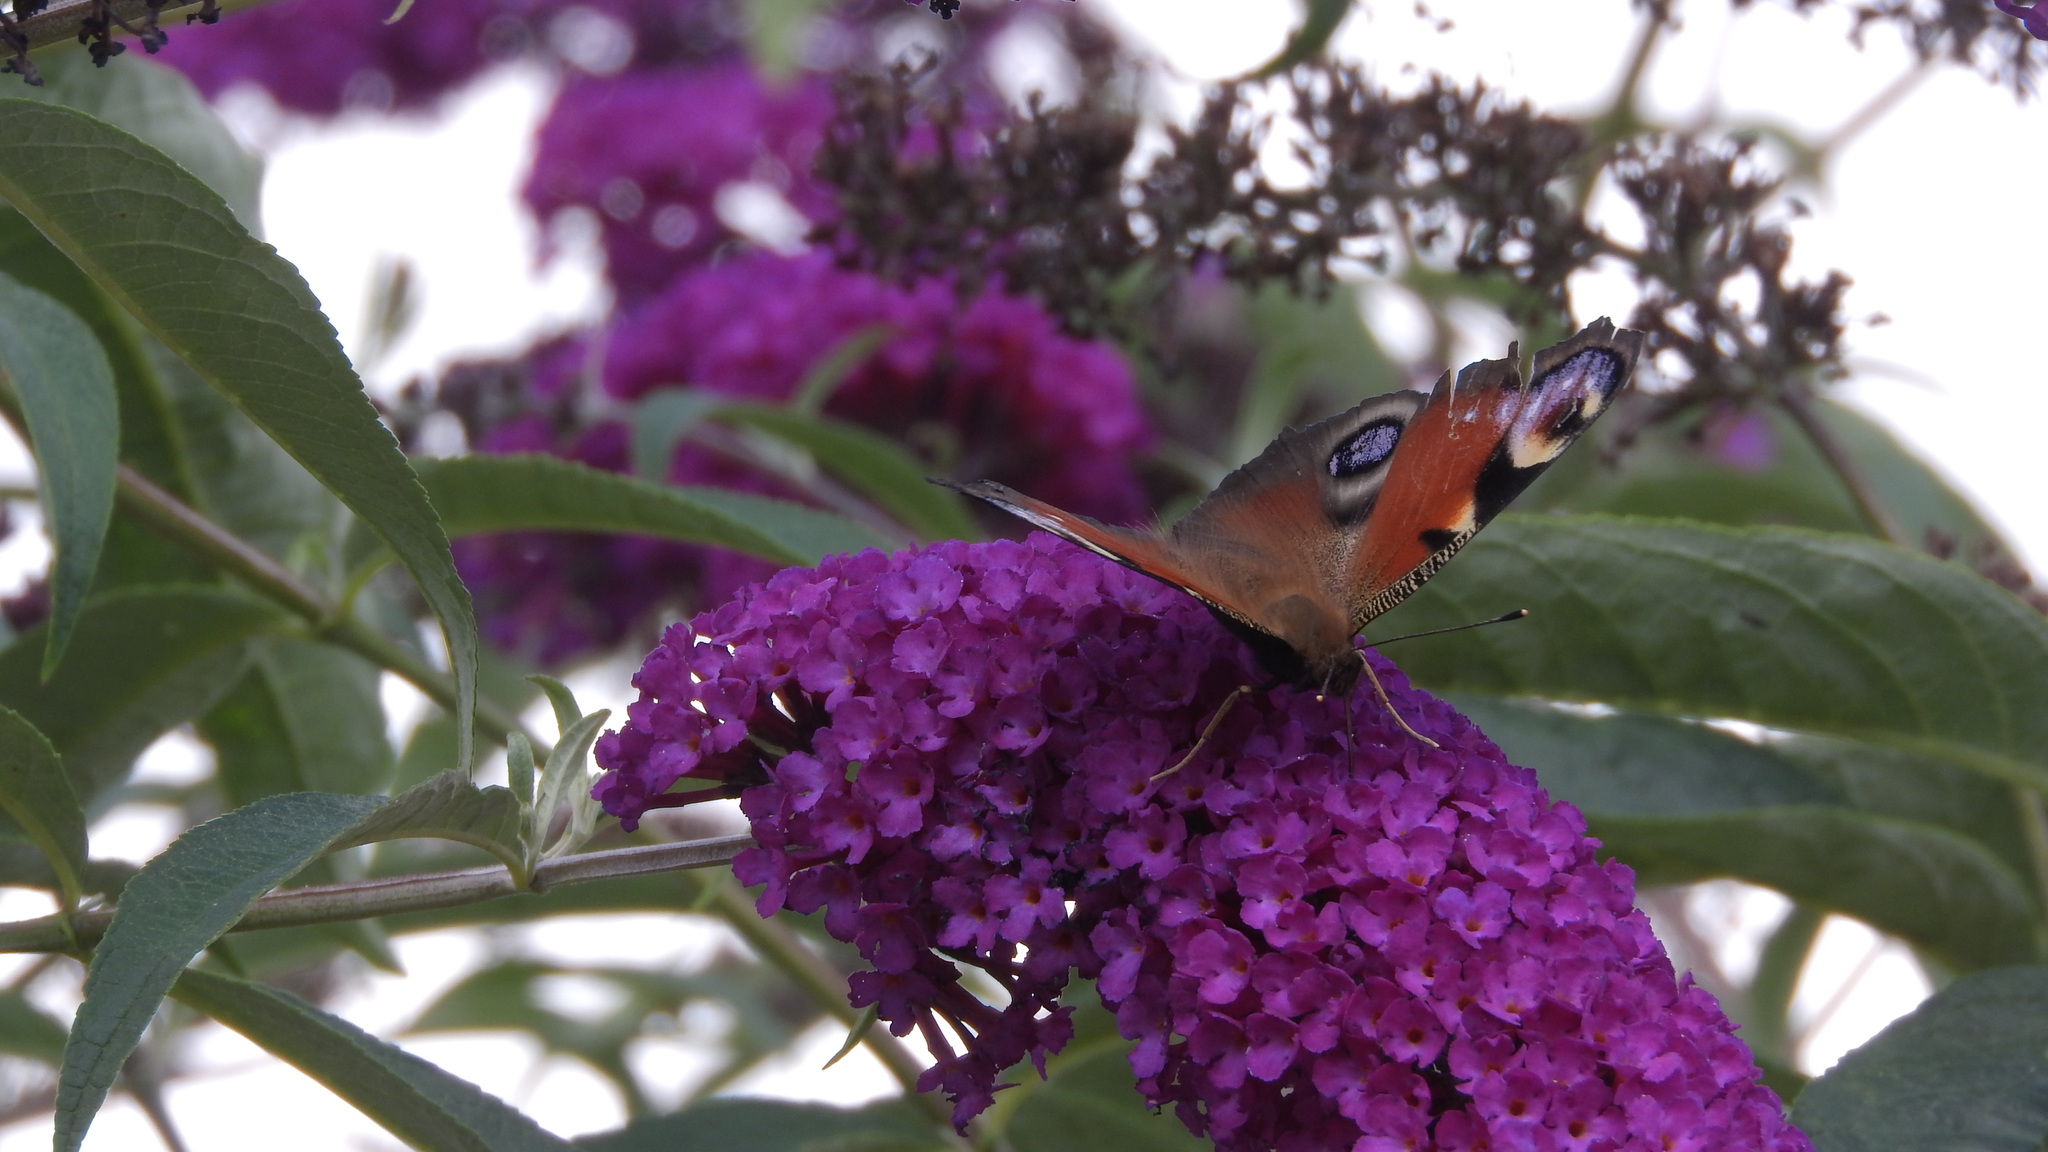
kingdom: Animalia
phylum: Arthropoda
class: Insecta
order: Lepidoptera
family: Nymphalidae
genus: Aglais
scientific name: Aglais io
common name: Peacock
